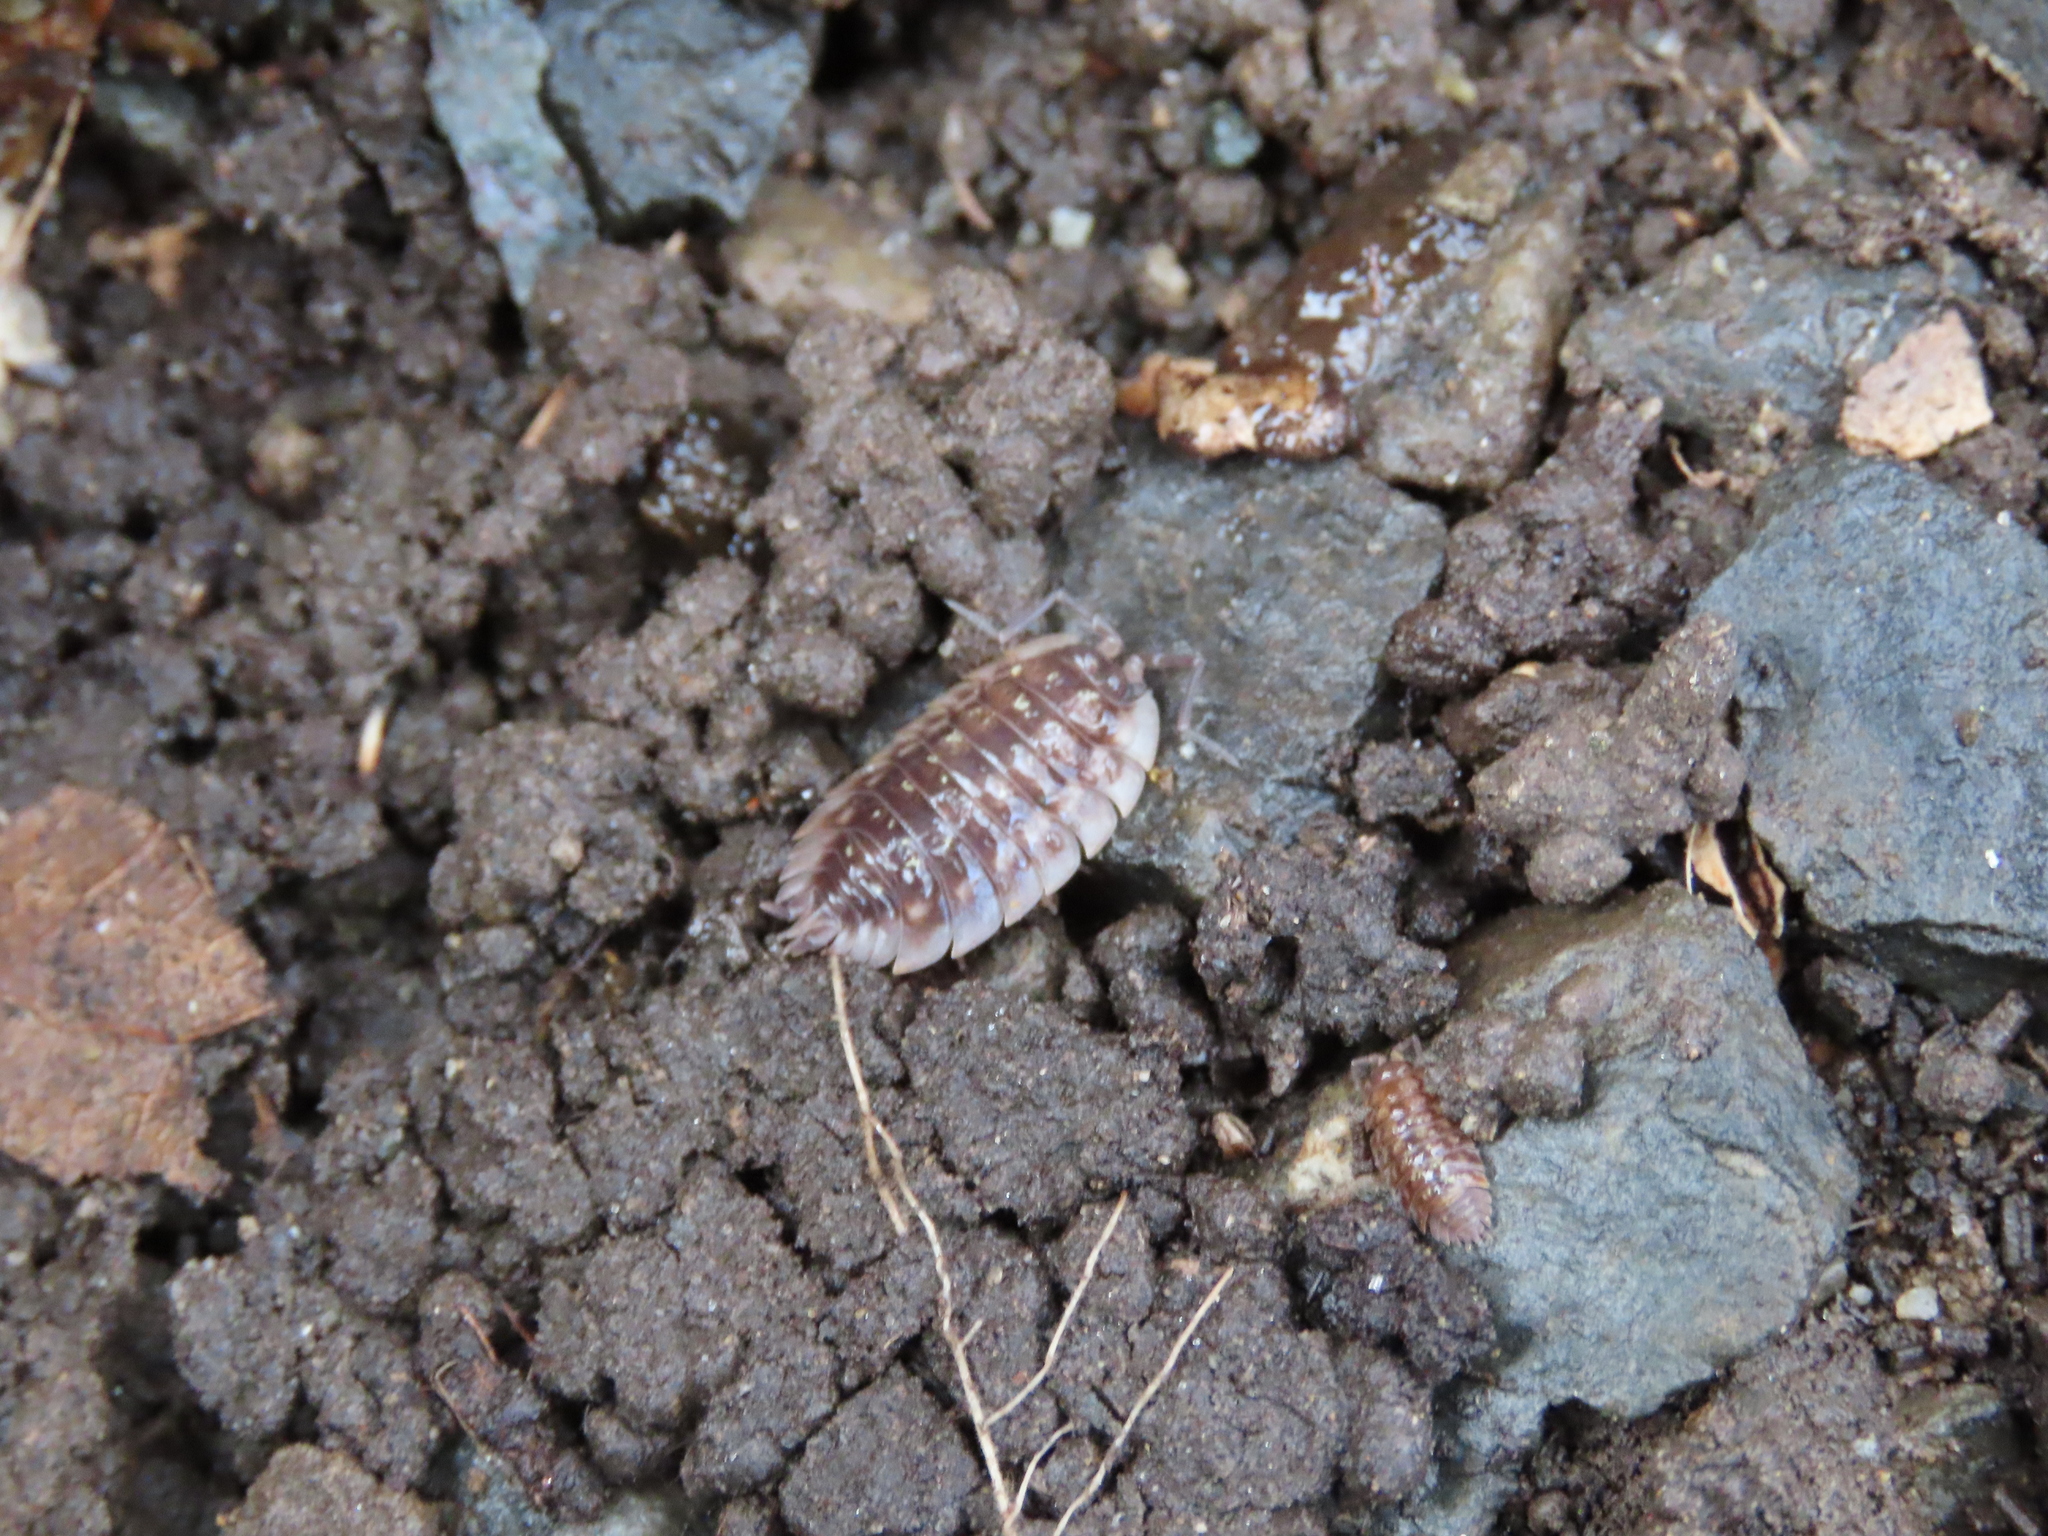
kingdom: Animalia
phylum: Arthropoda
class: Malacostraca
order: Isopoda
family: Oniscidae
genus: Oniscus
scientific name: Oniscus asellus
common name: Common shiny woodlouse
